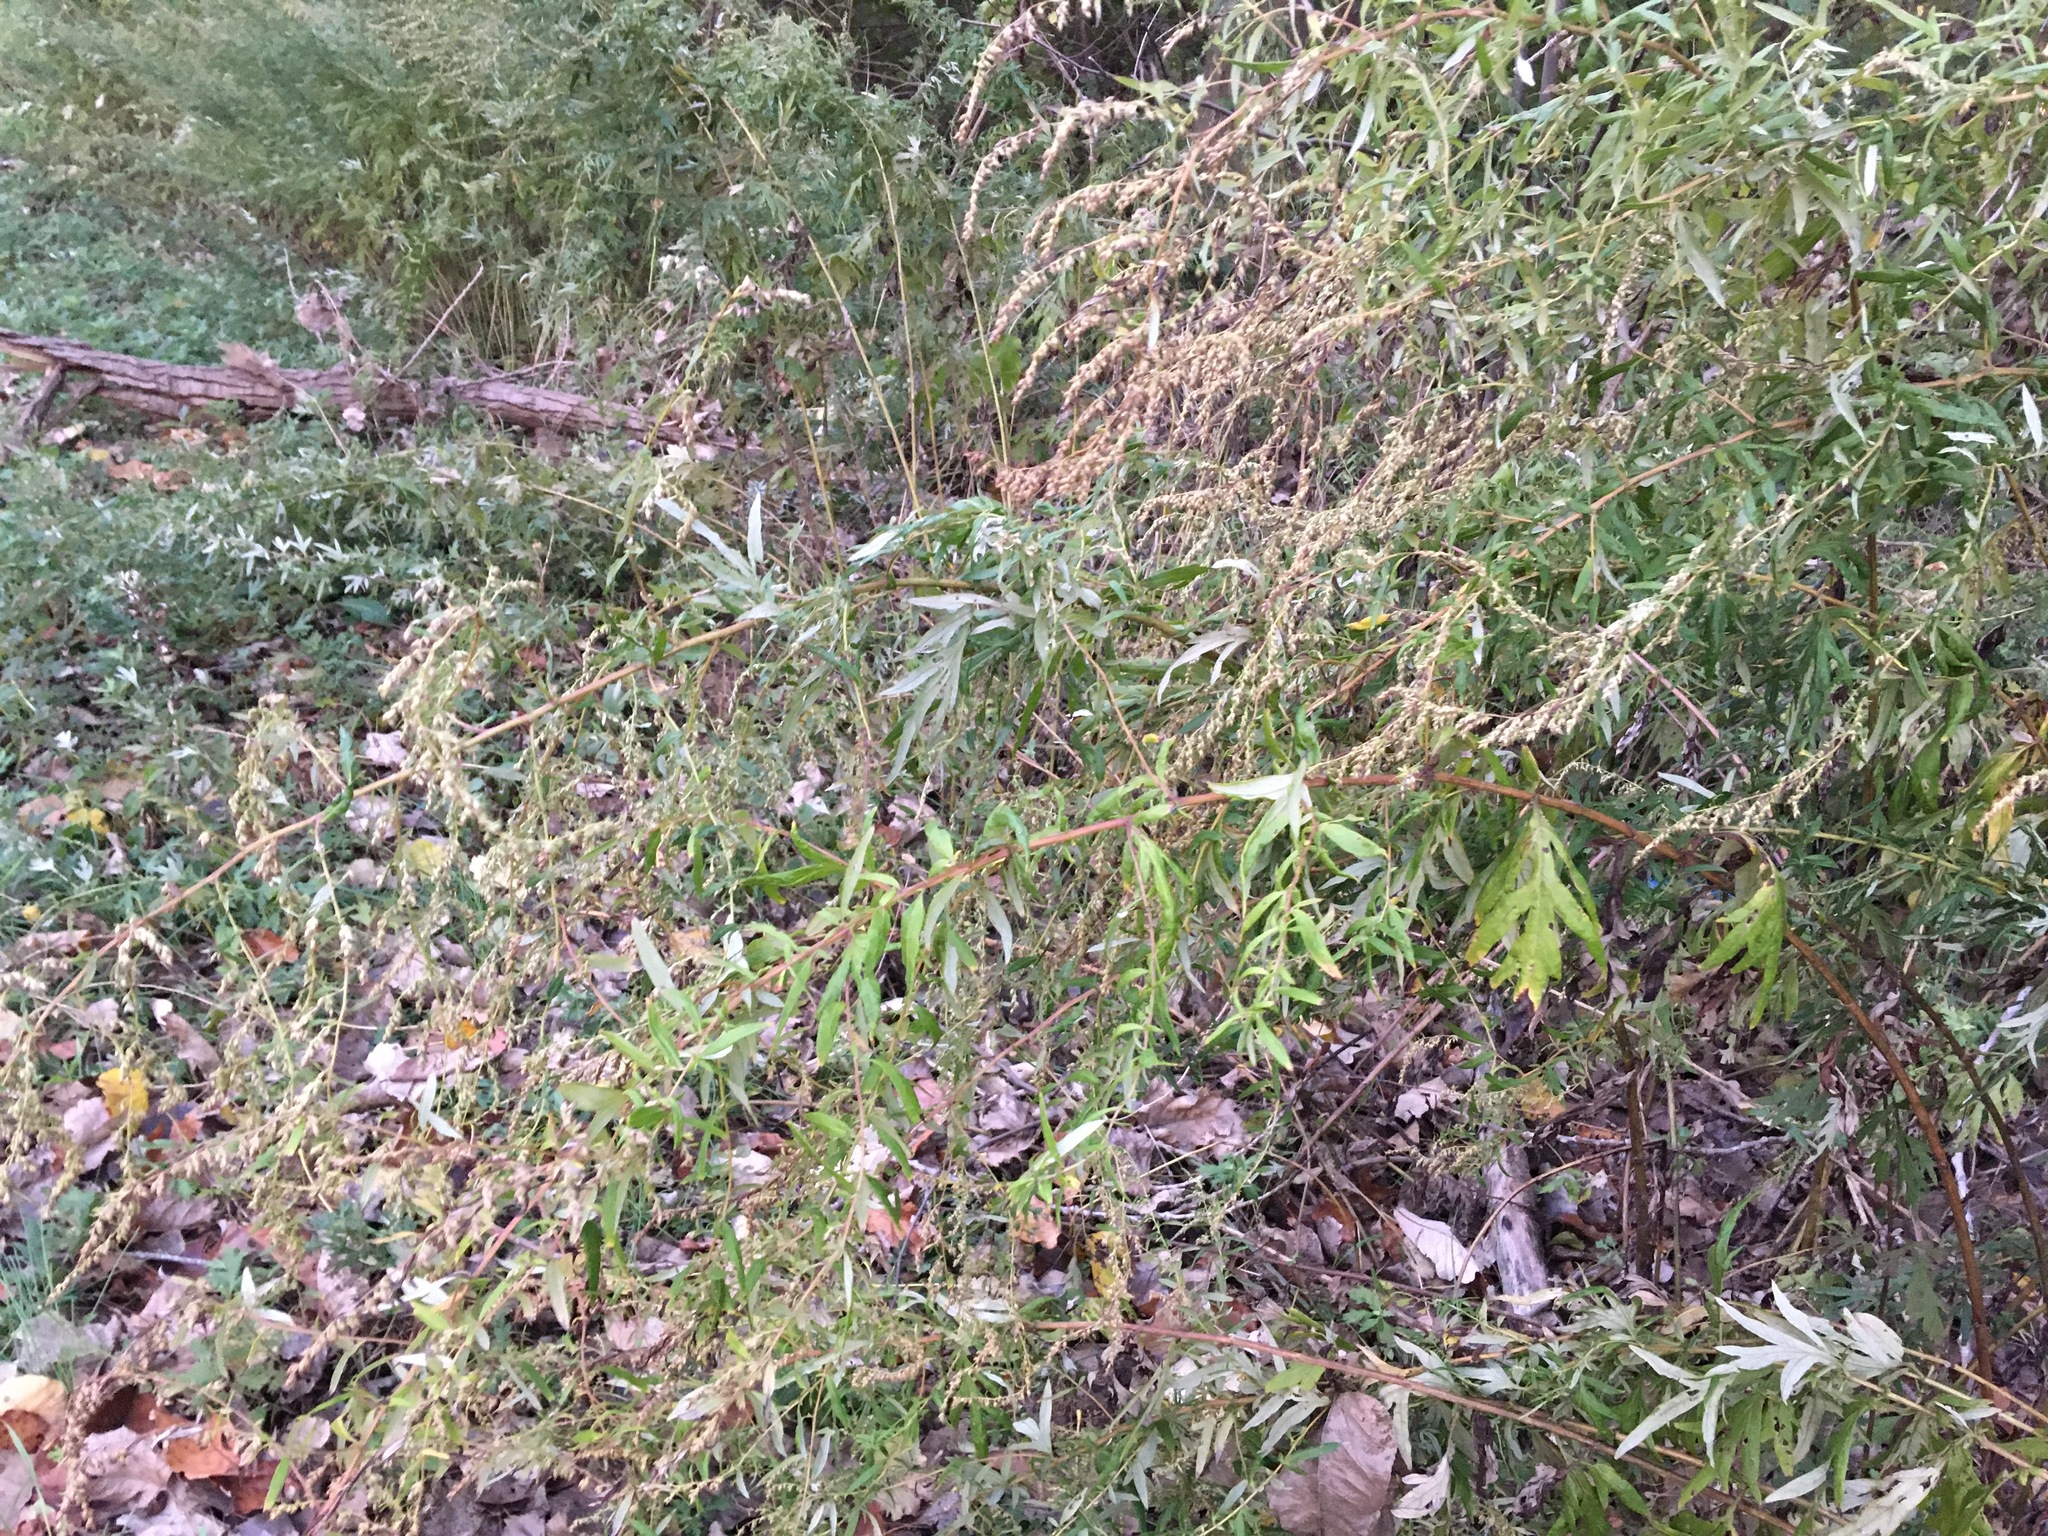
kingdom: Plantae
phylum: Tracheophyta
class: Magnoliopsida
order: Asterales
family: Asteraceae
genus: Artemisia
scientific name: Artemisia vulgaris
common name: Mugwort
